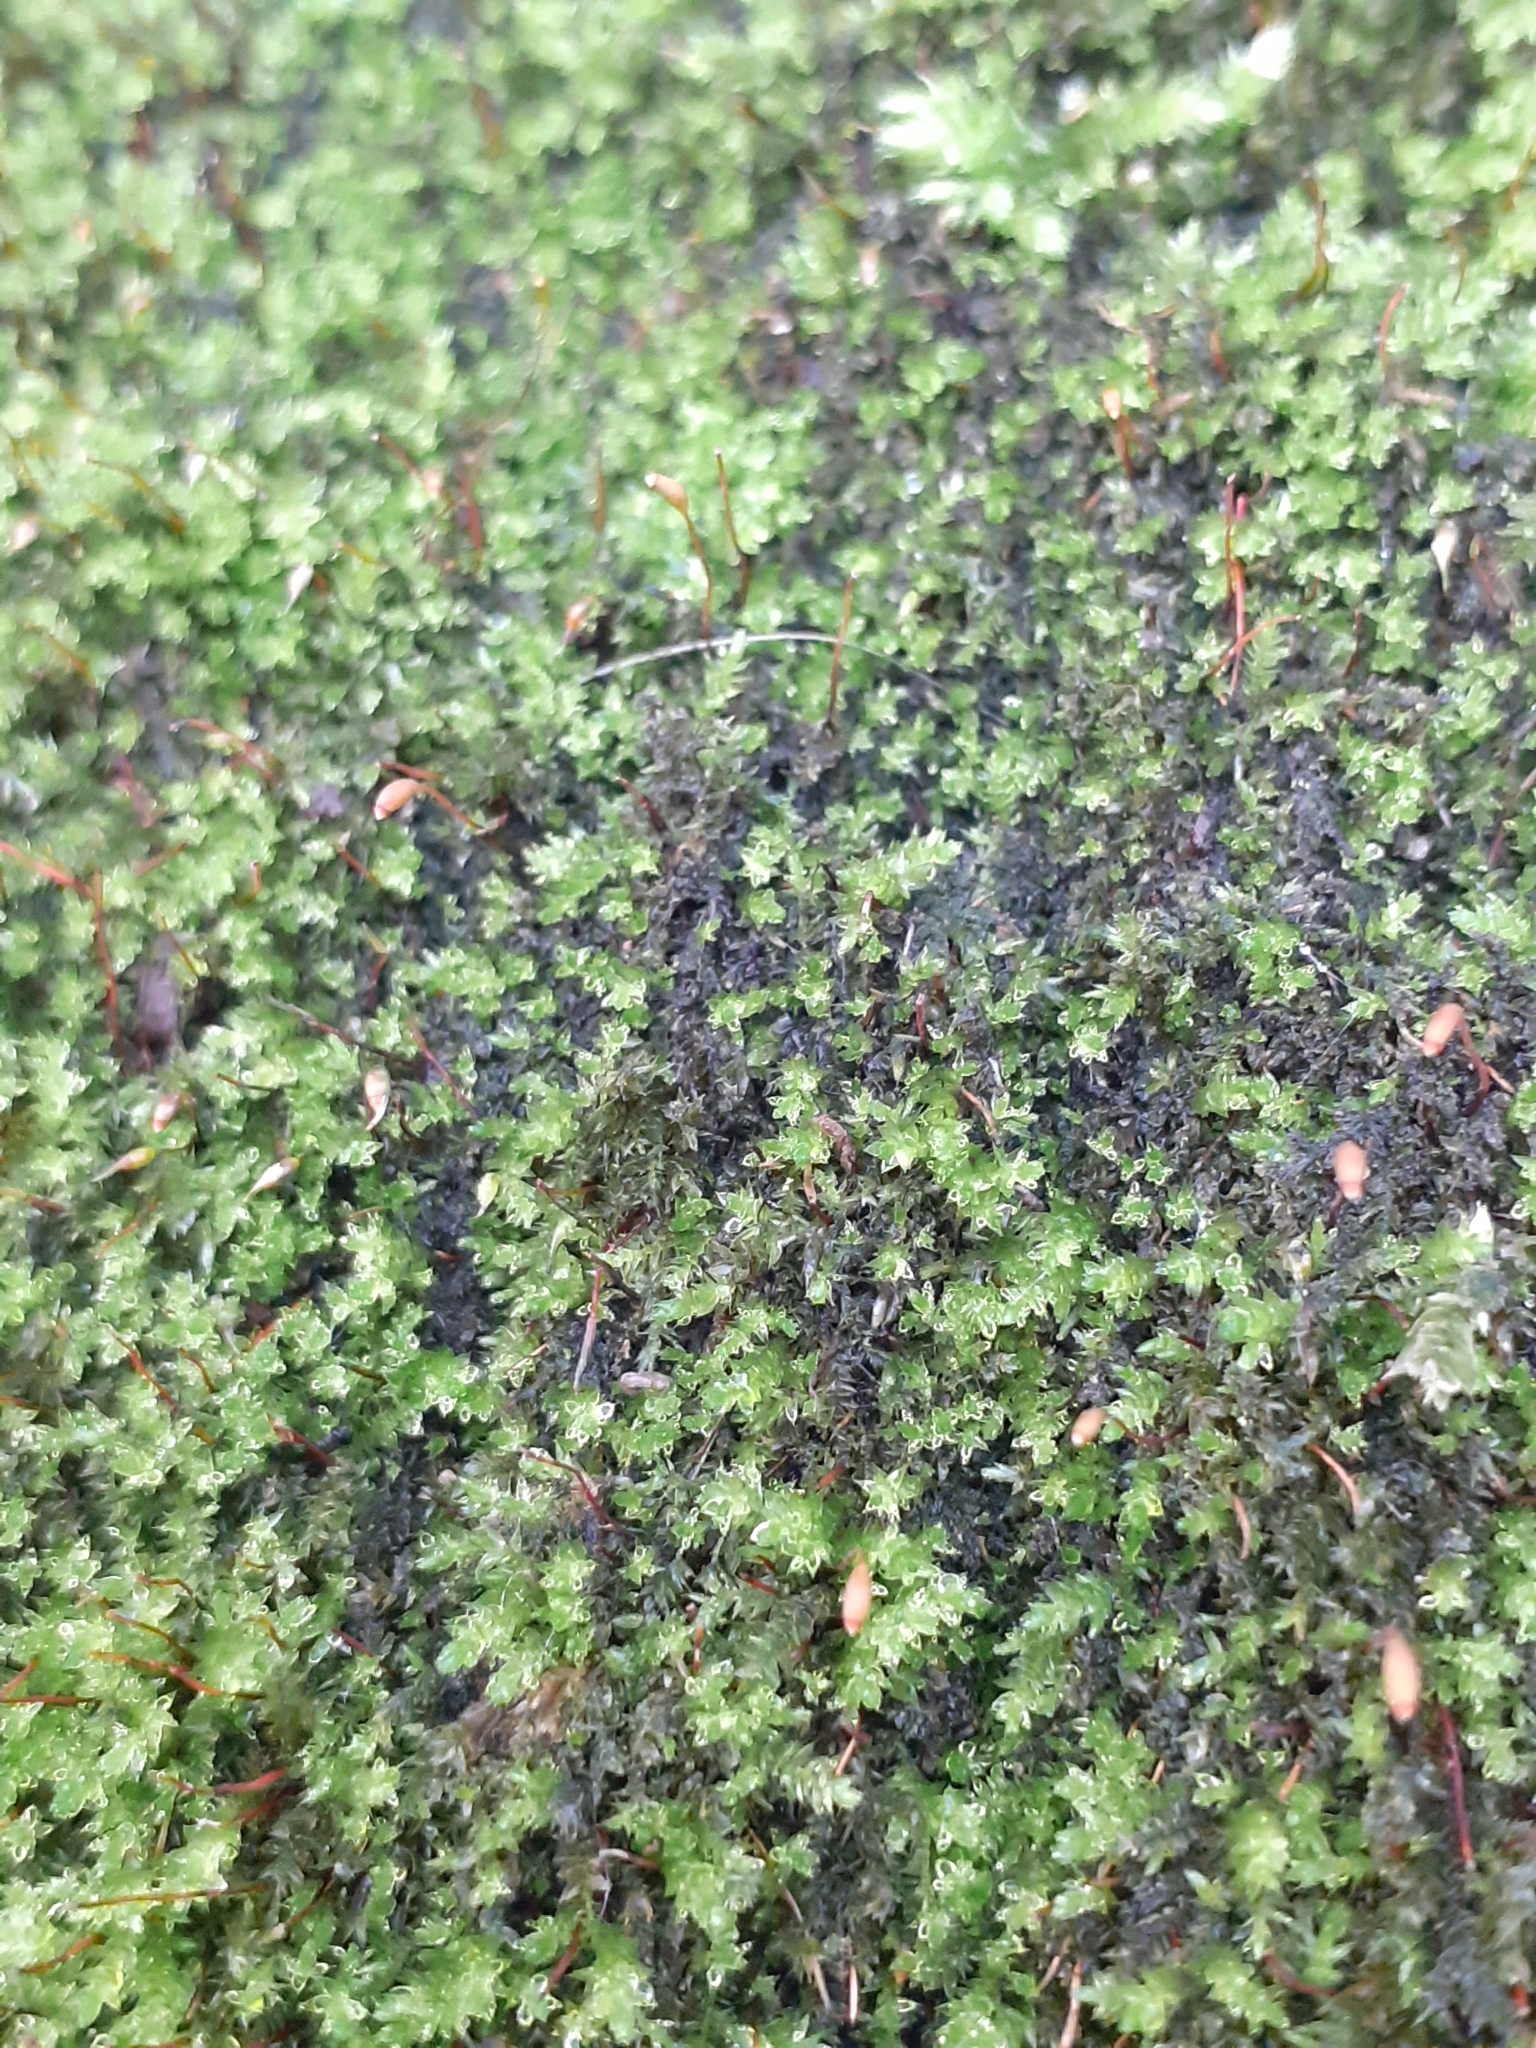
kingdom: Plantae
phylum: Bryophyta
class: Bryopsida
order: Hypnales
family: Brachytheciaceae
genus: Rhynchostegium
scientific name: Rhynchostegium confertum
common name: Clustered feather-moss
